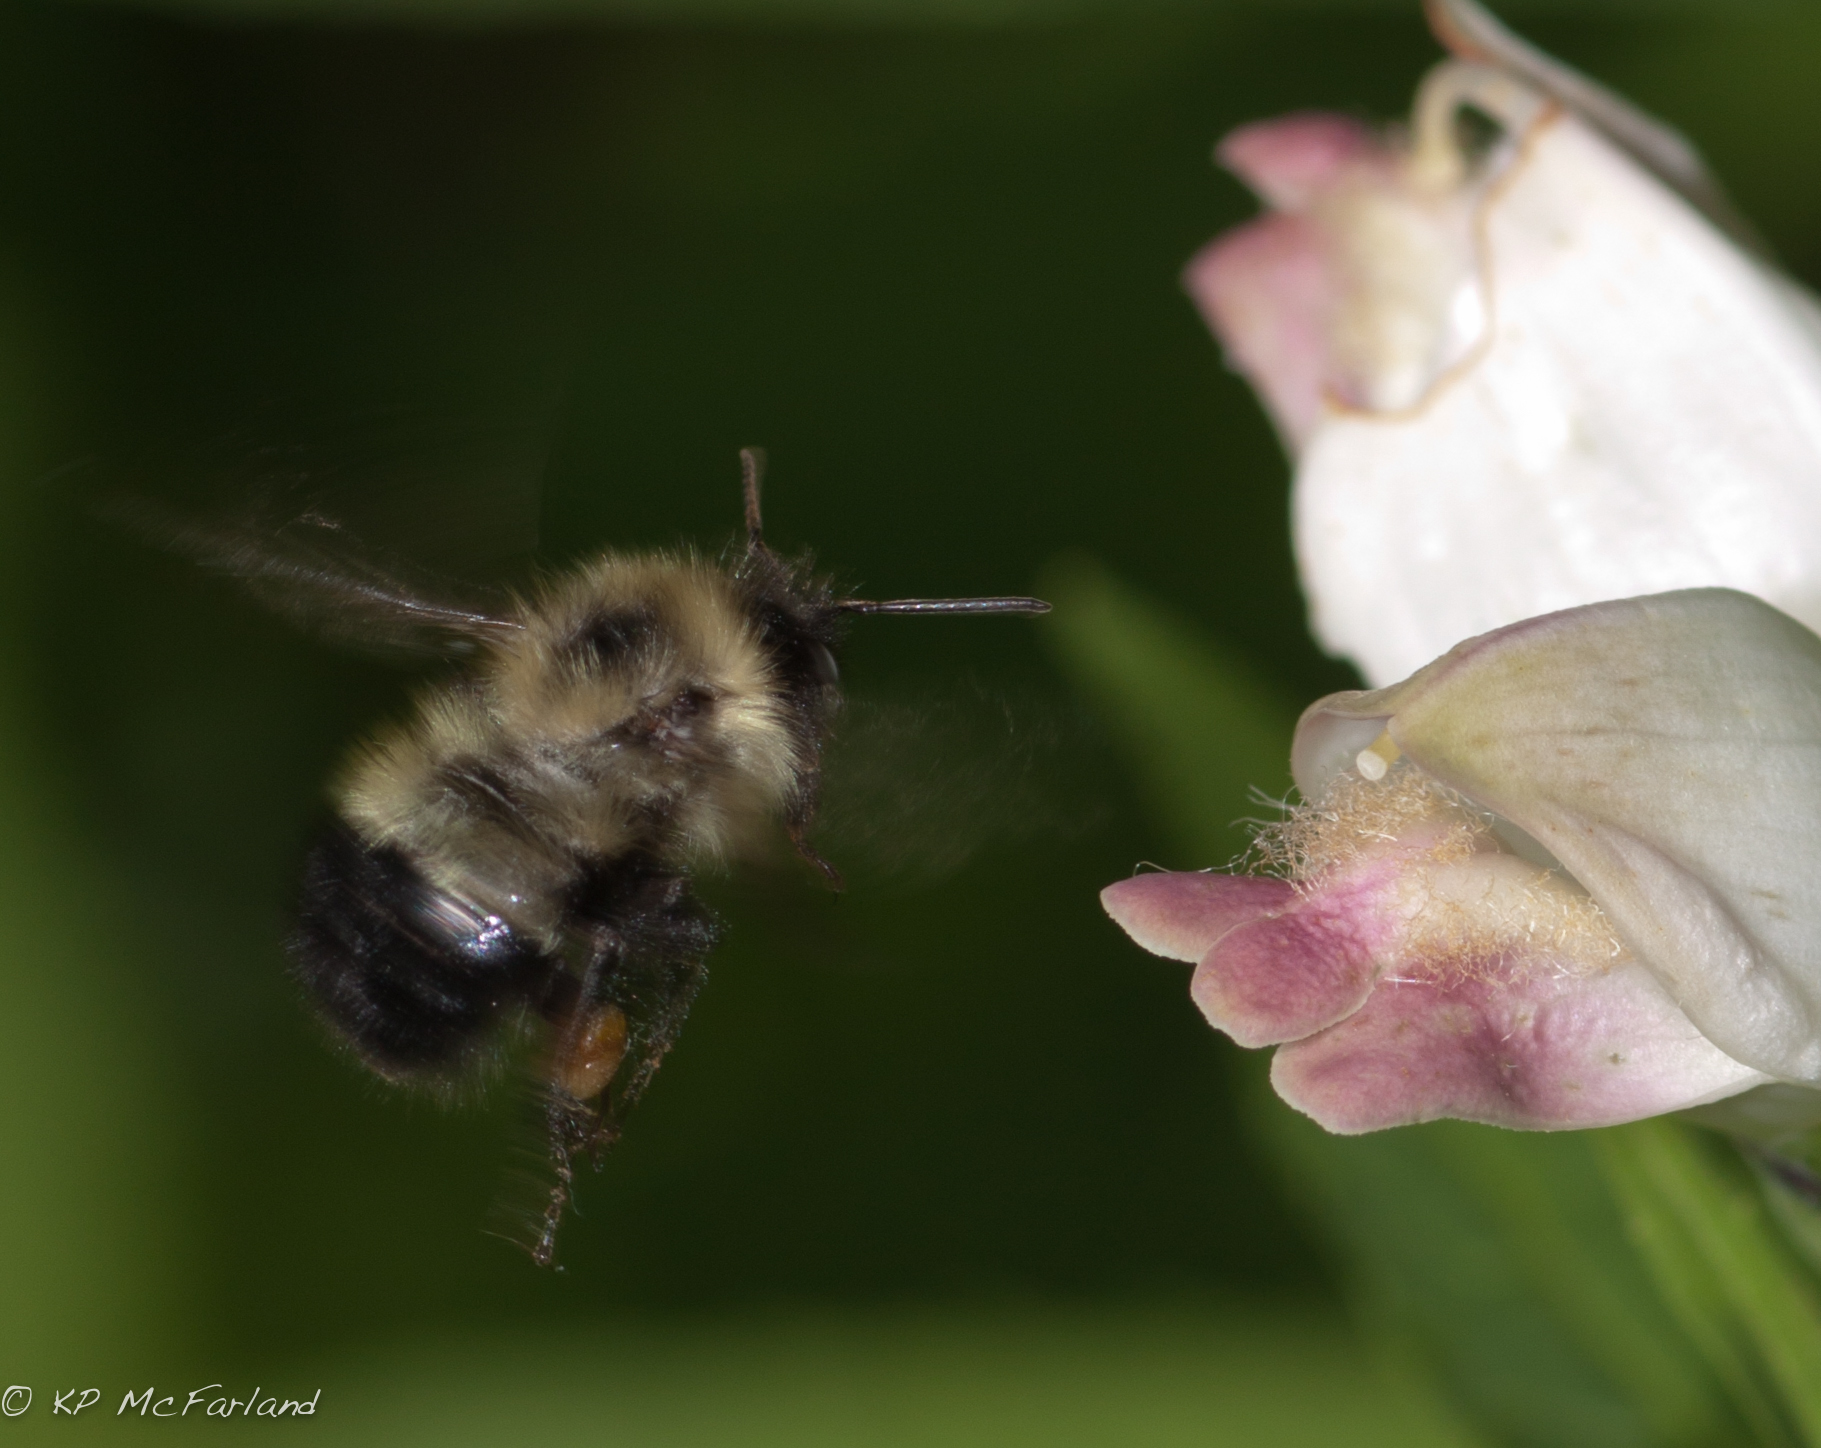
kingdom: Plantae
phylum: Tracheophyta
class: Magnoliopsida
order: Lamiales
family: Plantaginaceae
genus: Chelone
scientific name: Chelone glabra
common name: Snakehead
